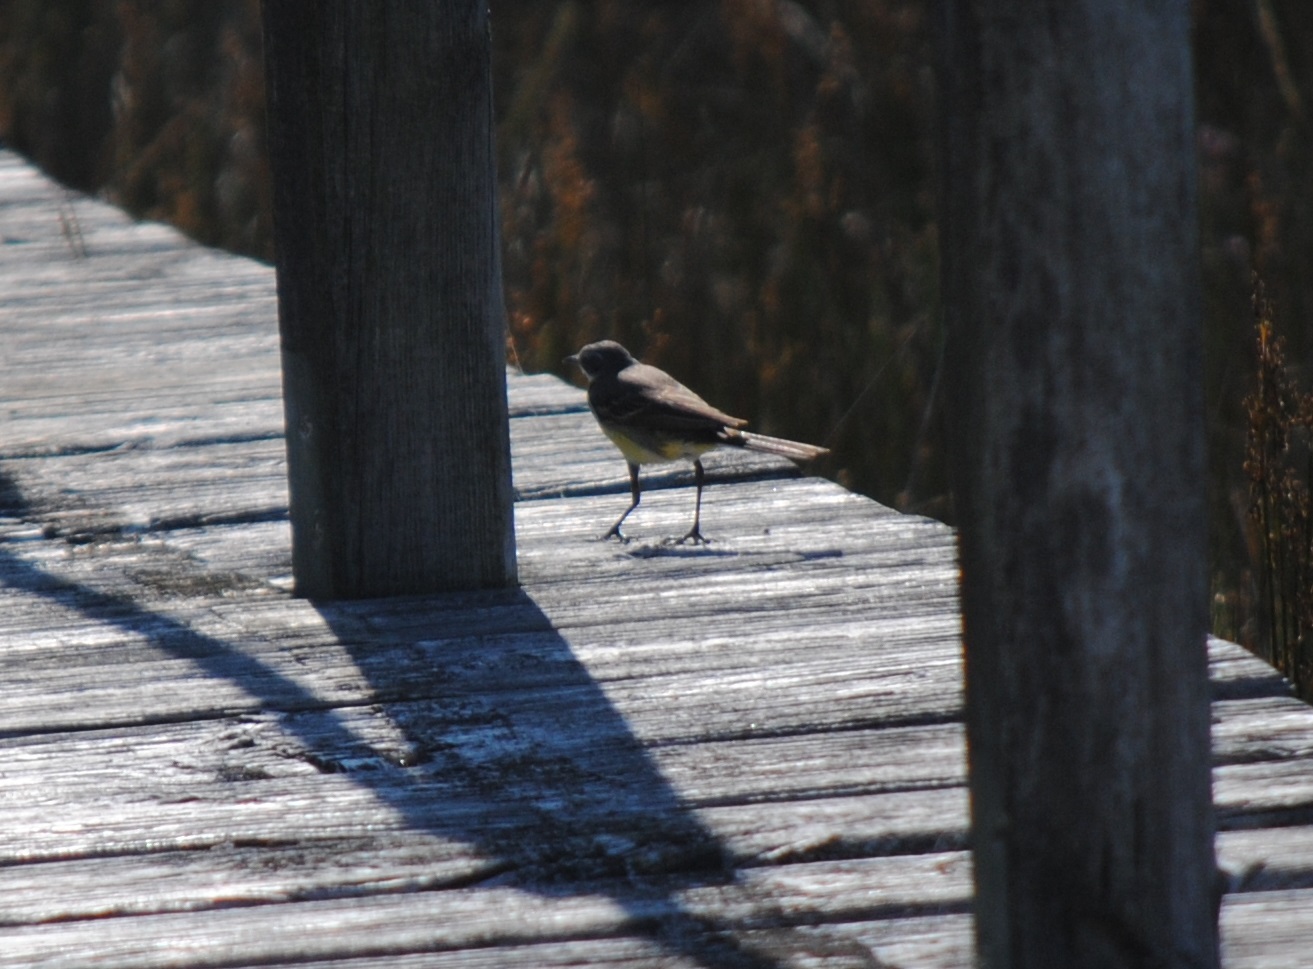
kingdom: Animalia
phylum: Chordata
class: Aves
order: Passeriformes
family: Motacillidae
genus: Motacilla
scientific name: Motacilla flava
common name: Western yellow wagtail
